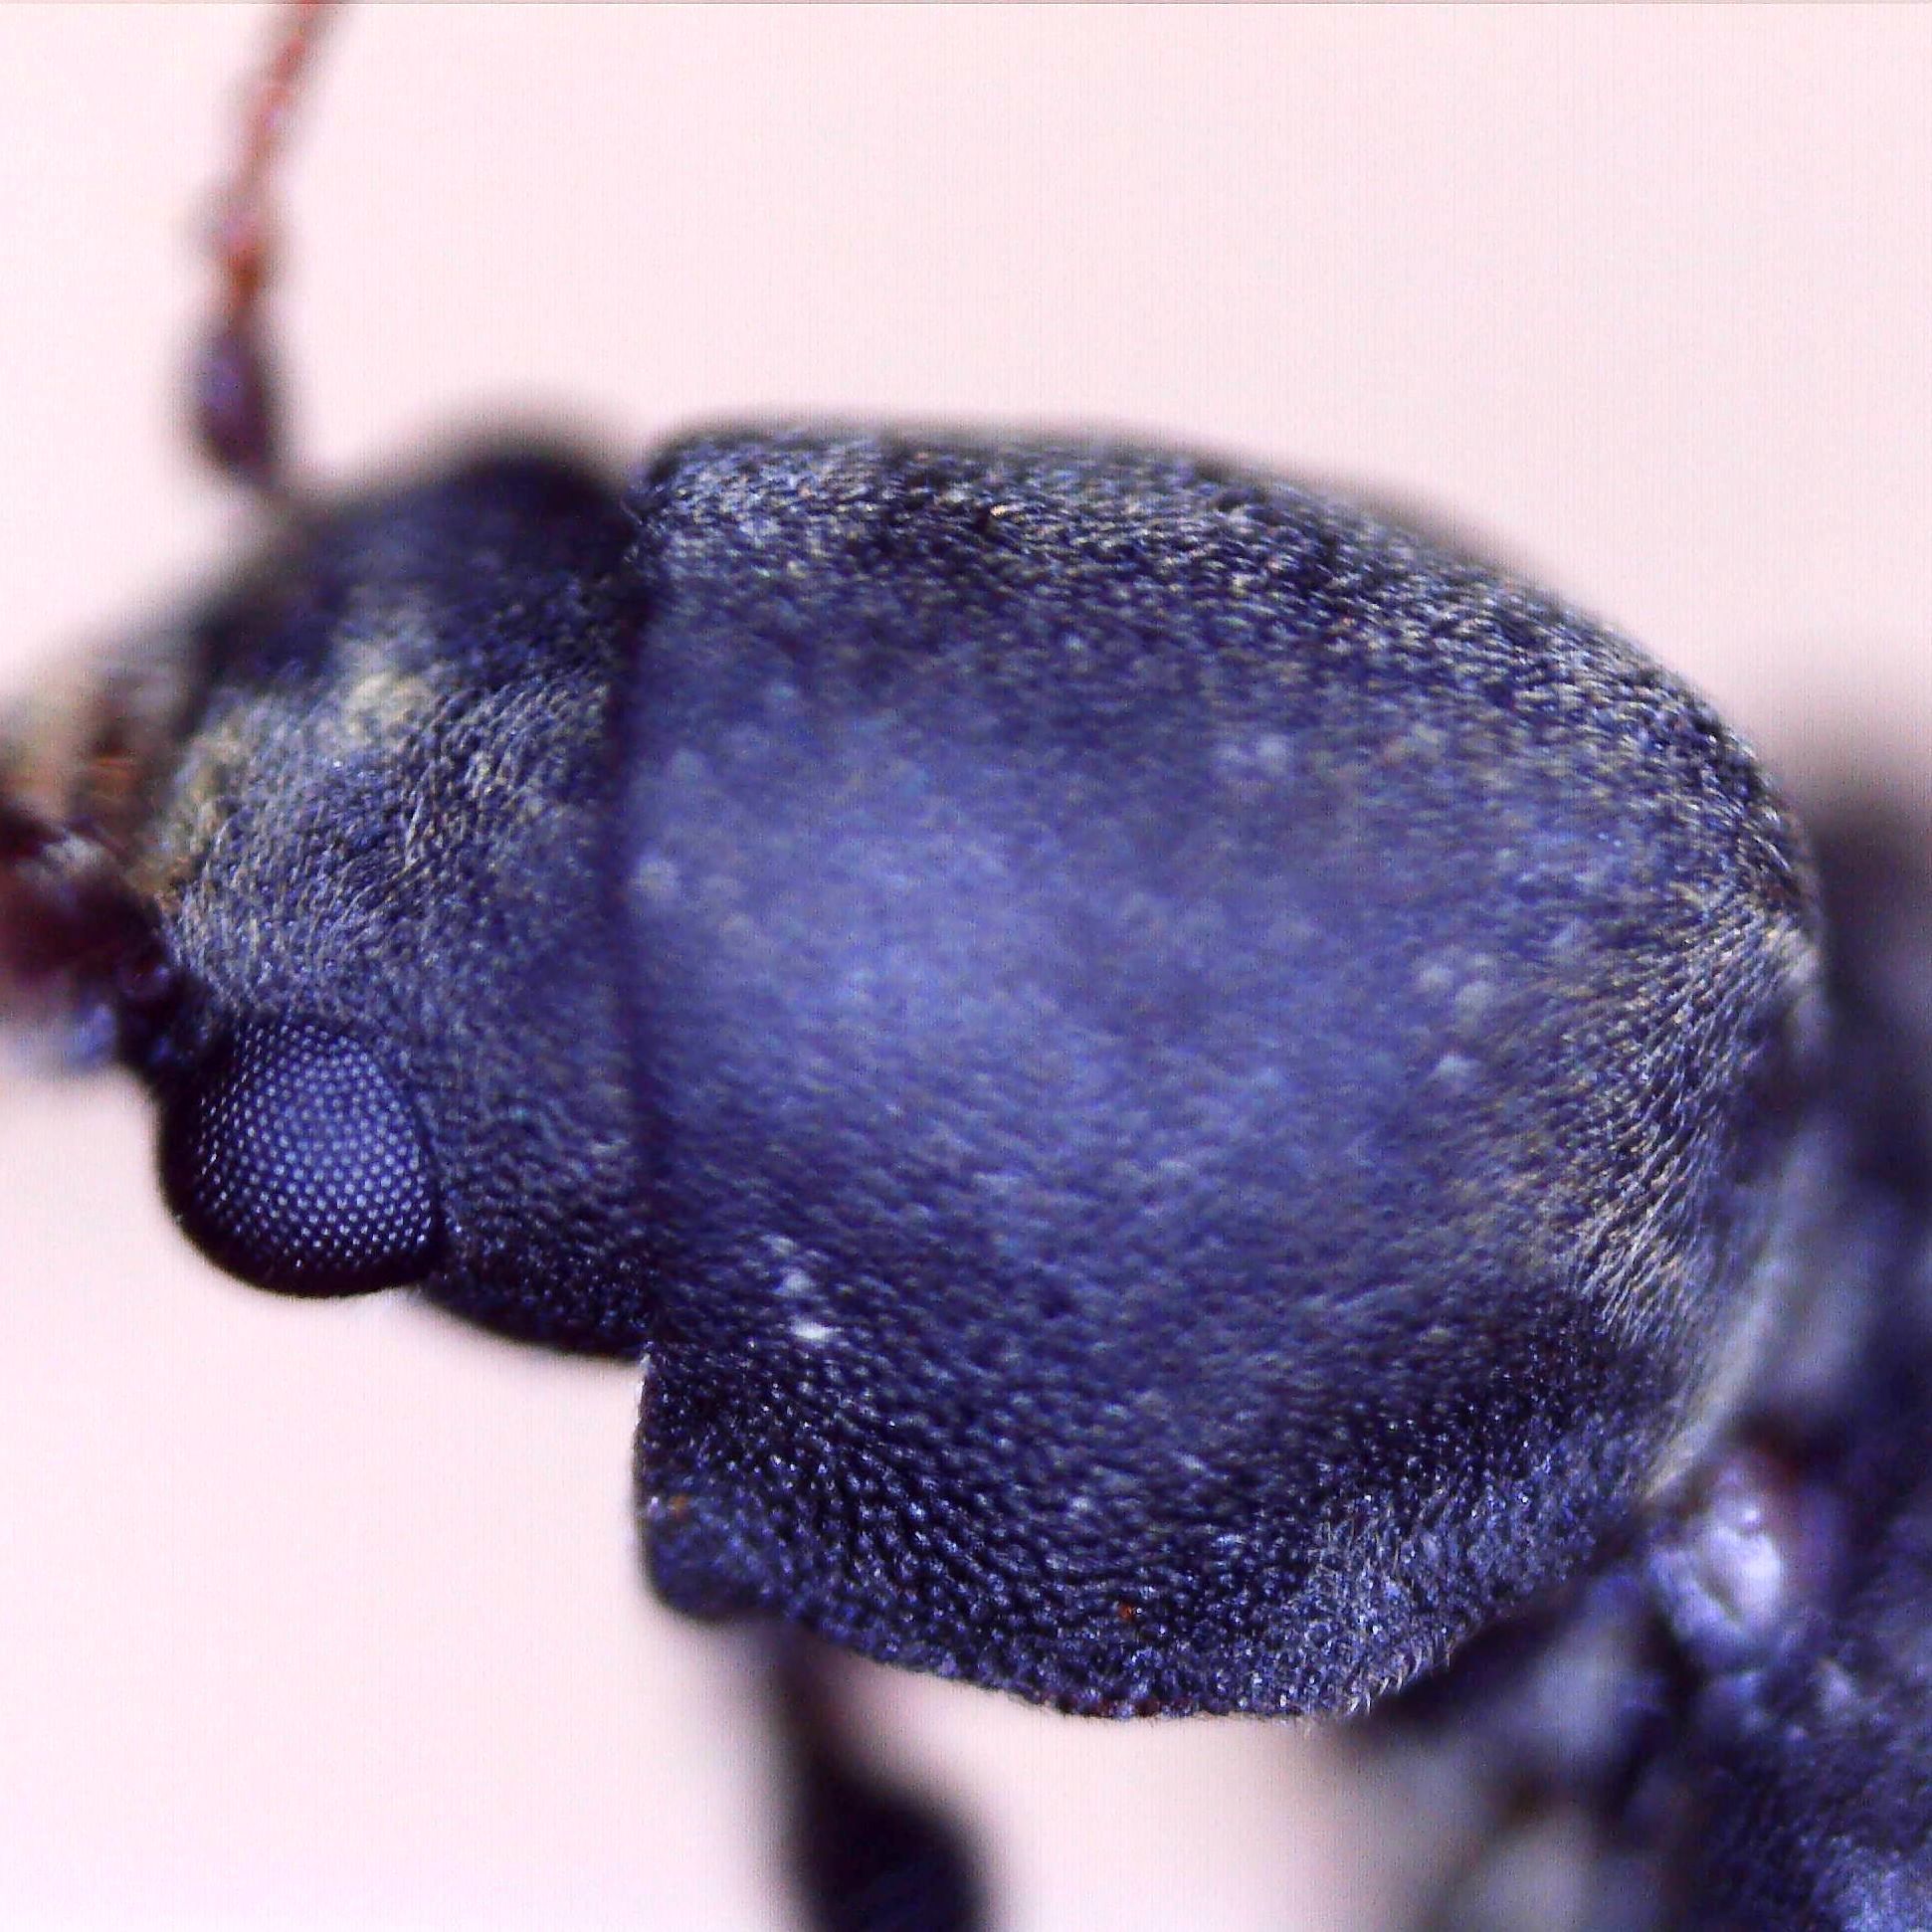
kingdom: Animalia
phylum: Arthropoda
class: Insecta
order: Coleoptera
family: Anobiidae
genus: Hemicoelus
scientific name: Hemicoelus fulvicornis
